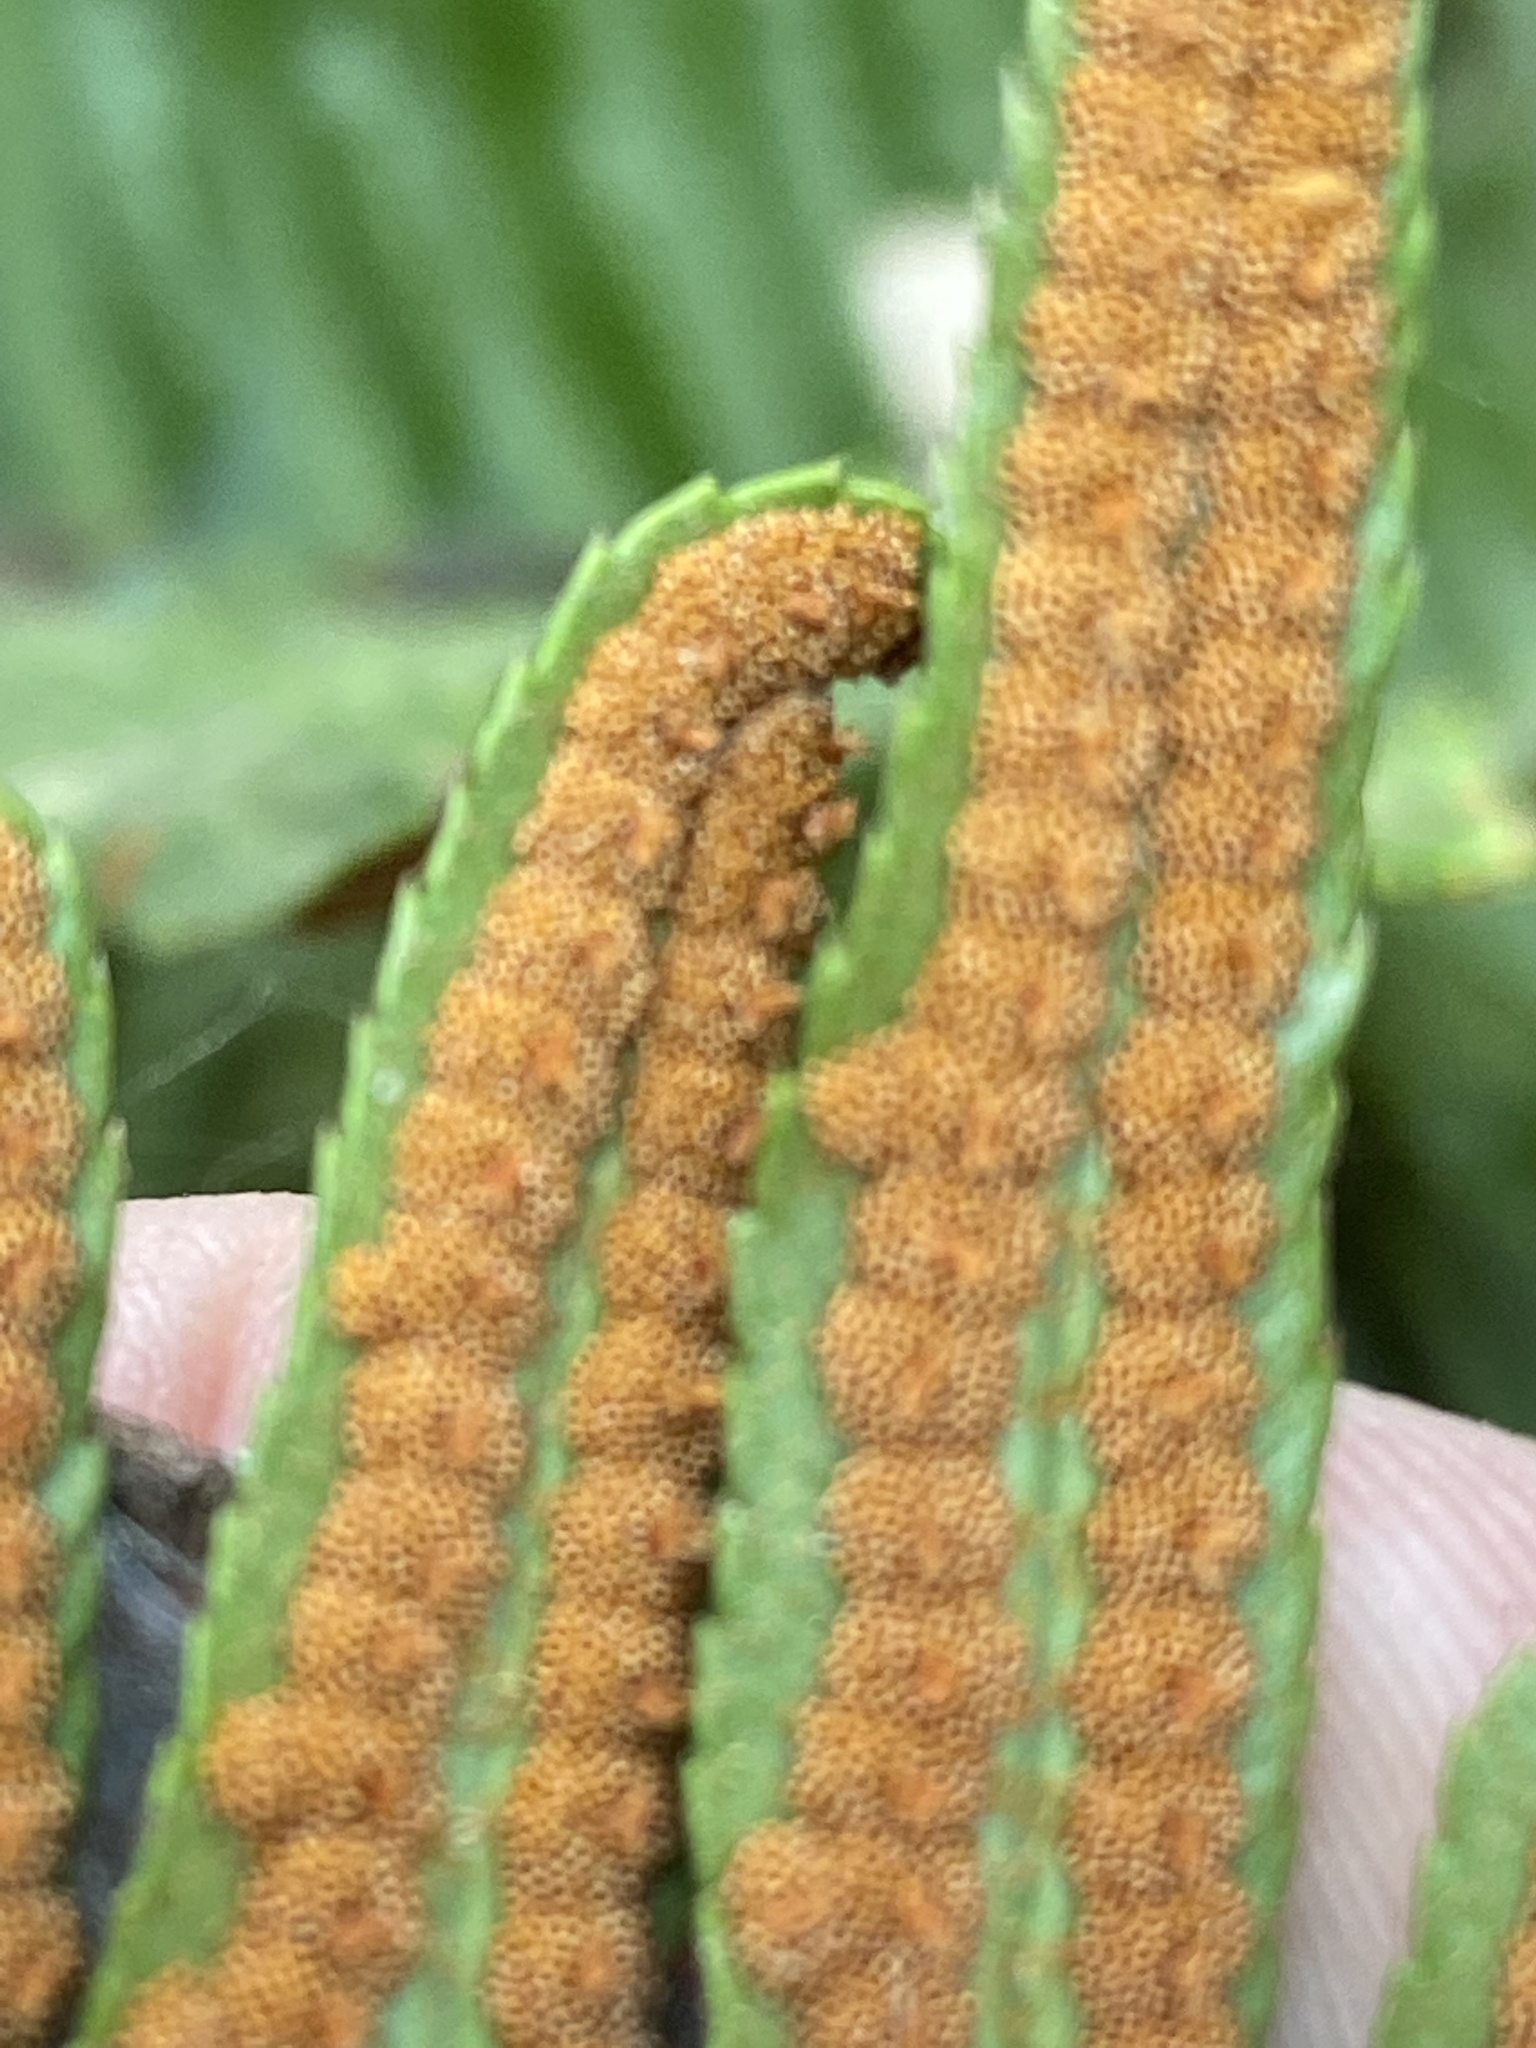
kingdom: Plantae
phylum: Tracheophyta
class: Polypodiopsida
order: Polypodiales
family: Dryopteridaceae
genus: Polystichum
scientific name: Polystichum munitum
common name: Western sword-fern
